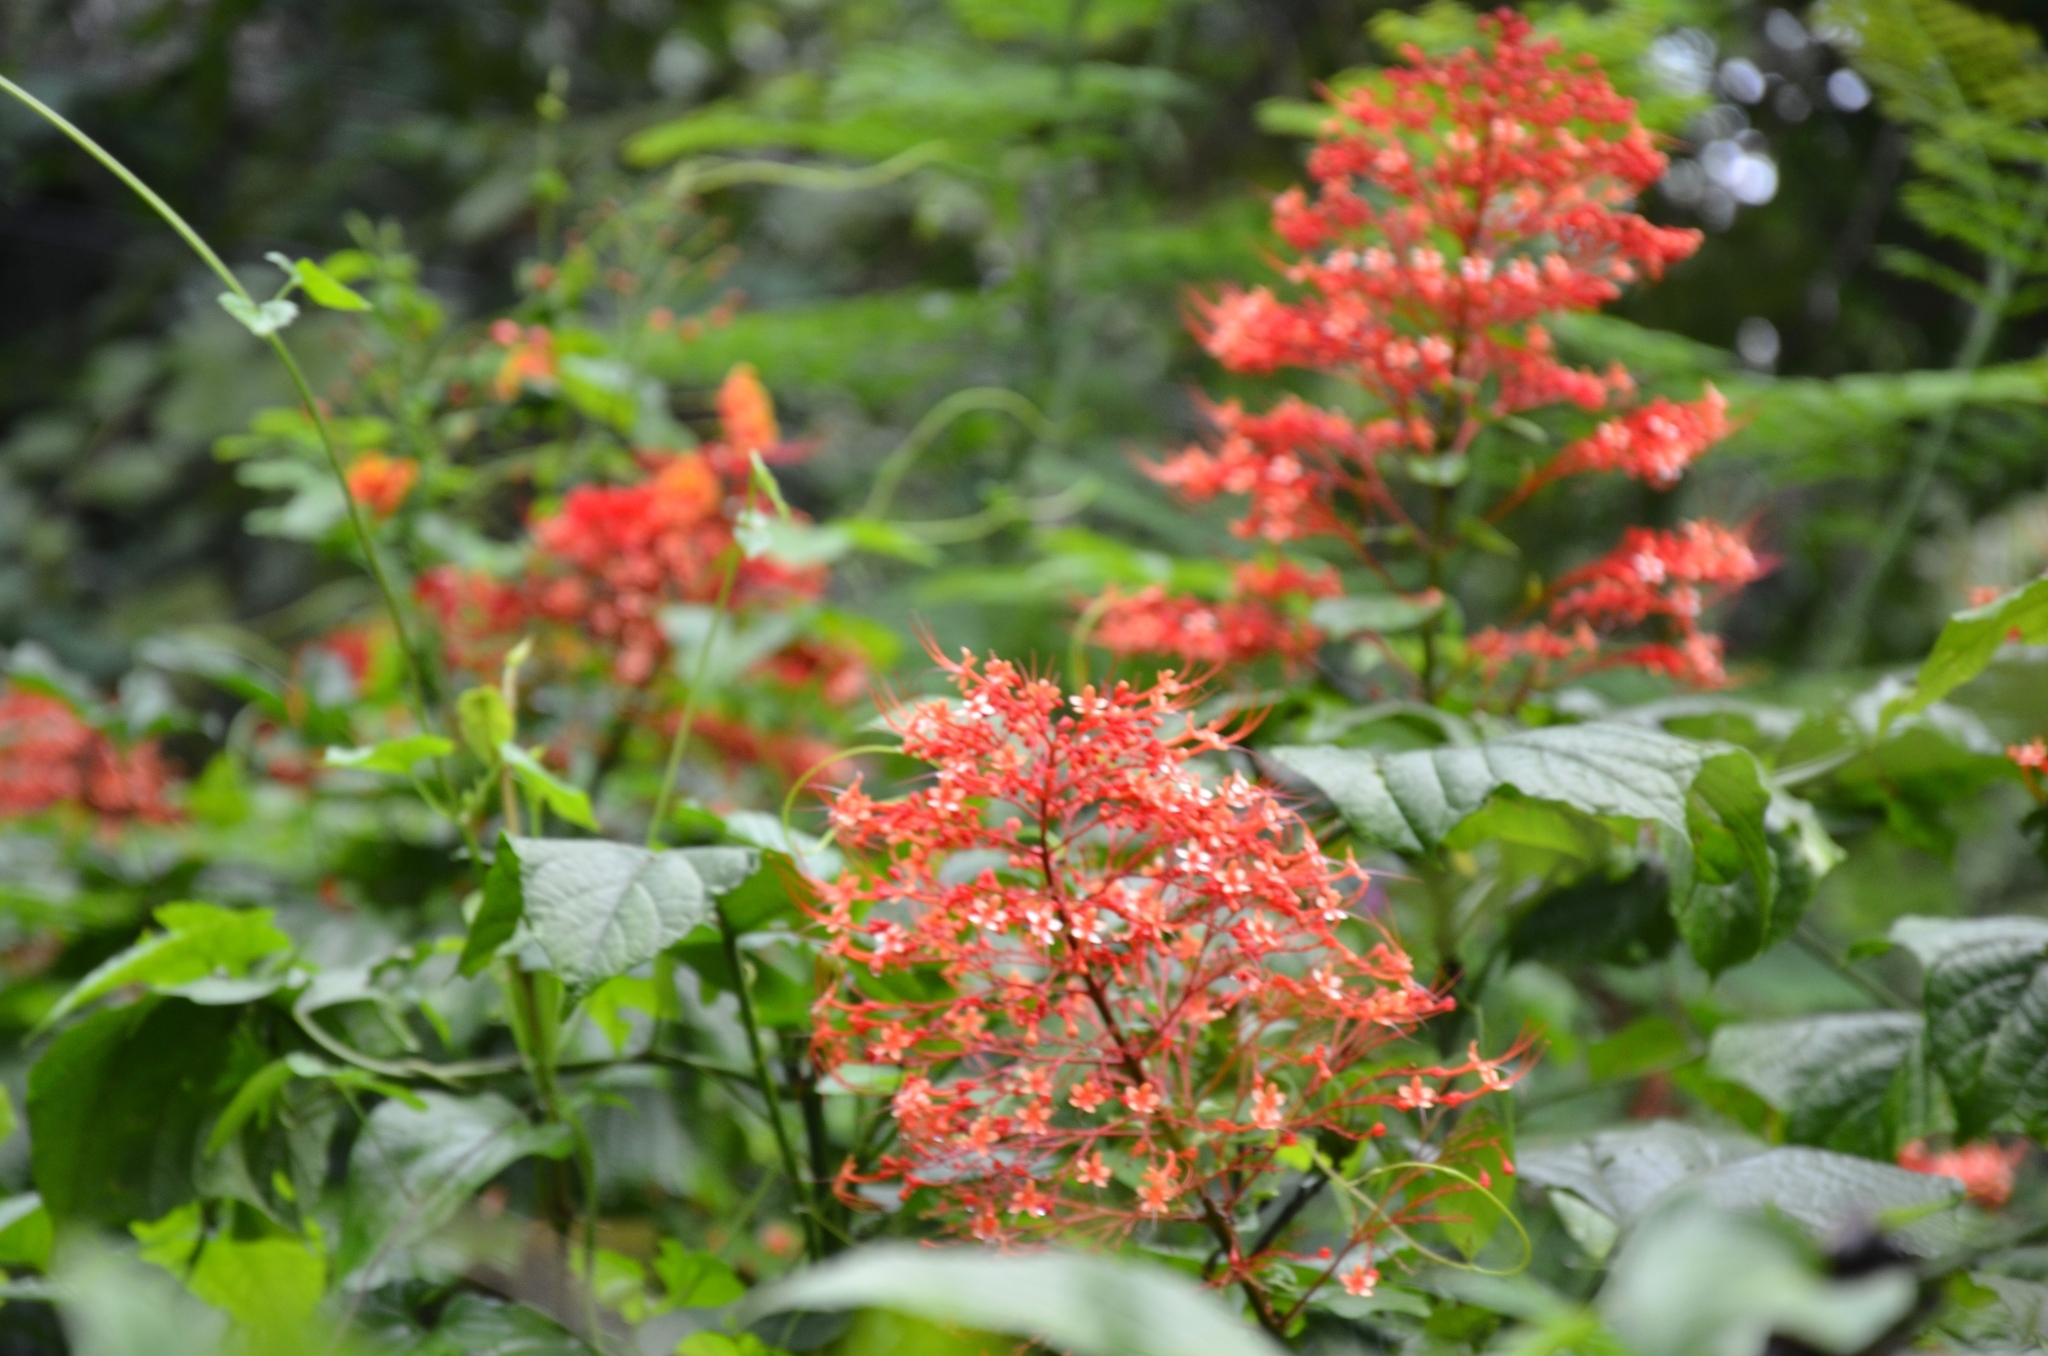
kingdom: Plantae
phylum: Tracheophyta
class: Magnoliopsida
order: Lamiales
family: Lamiaceae
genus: Clerodendrum
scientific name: Clerodendrum paniculatum
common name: Pagoda-flower
